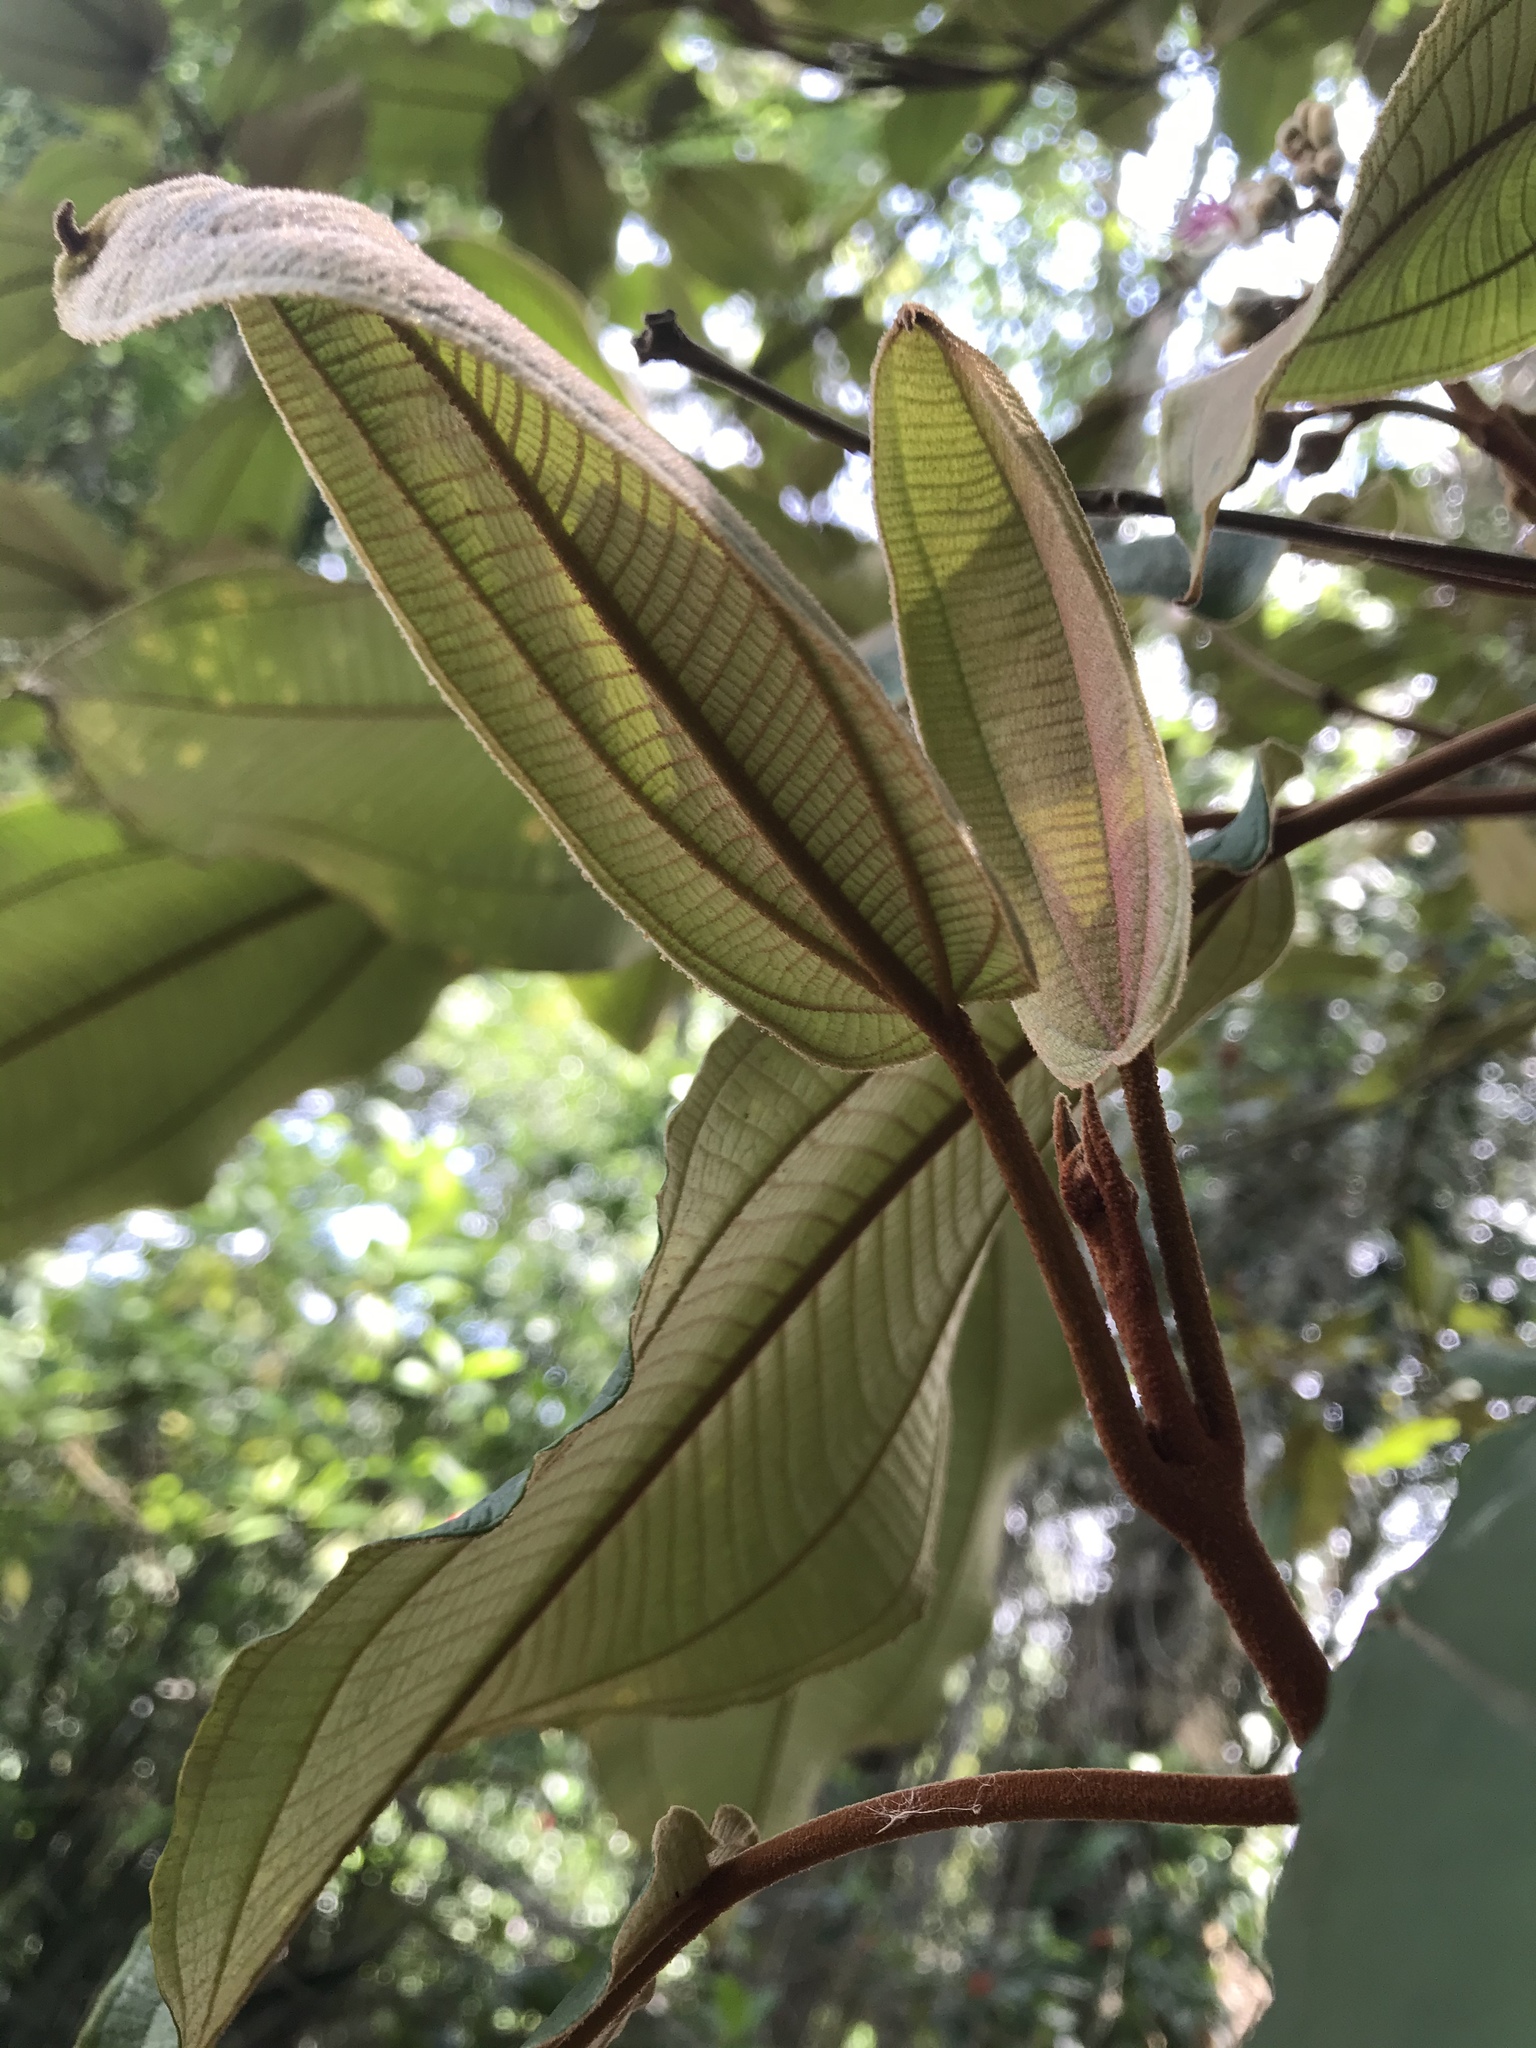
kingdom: Plantae
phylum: Tracheophyta
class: Magnoliopsida
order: Myrtales
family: Melastomataceae
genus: Miconia
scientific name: Miconia bubalina
